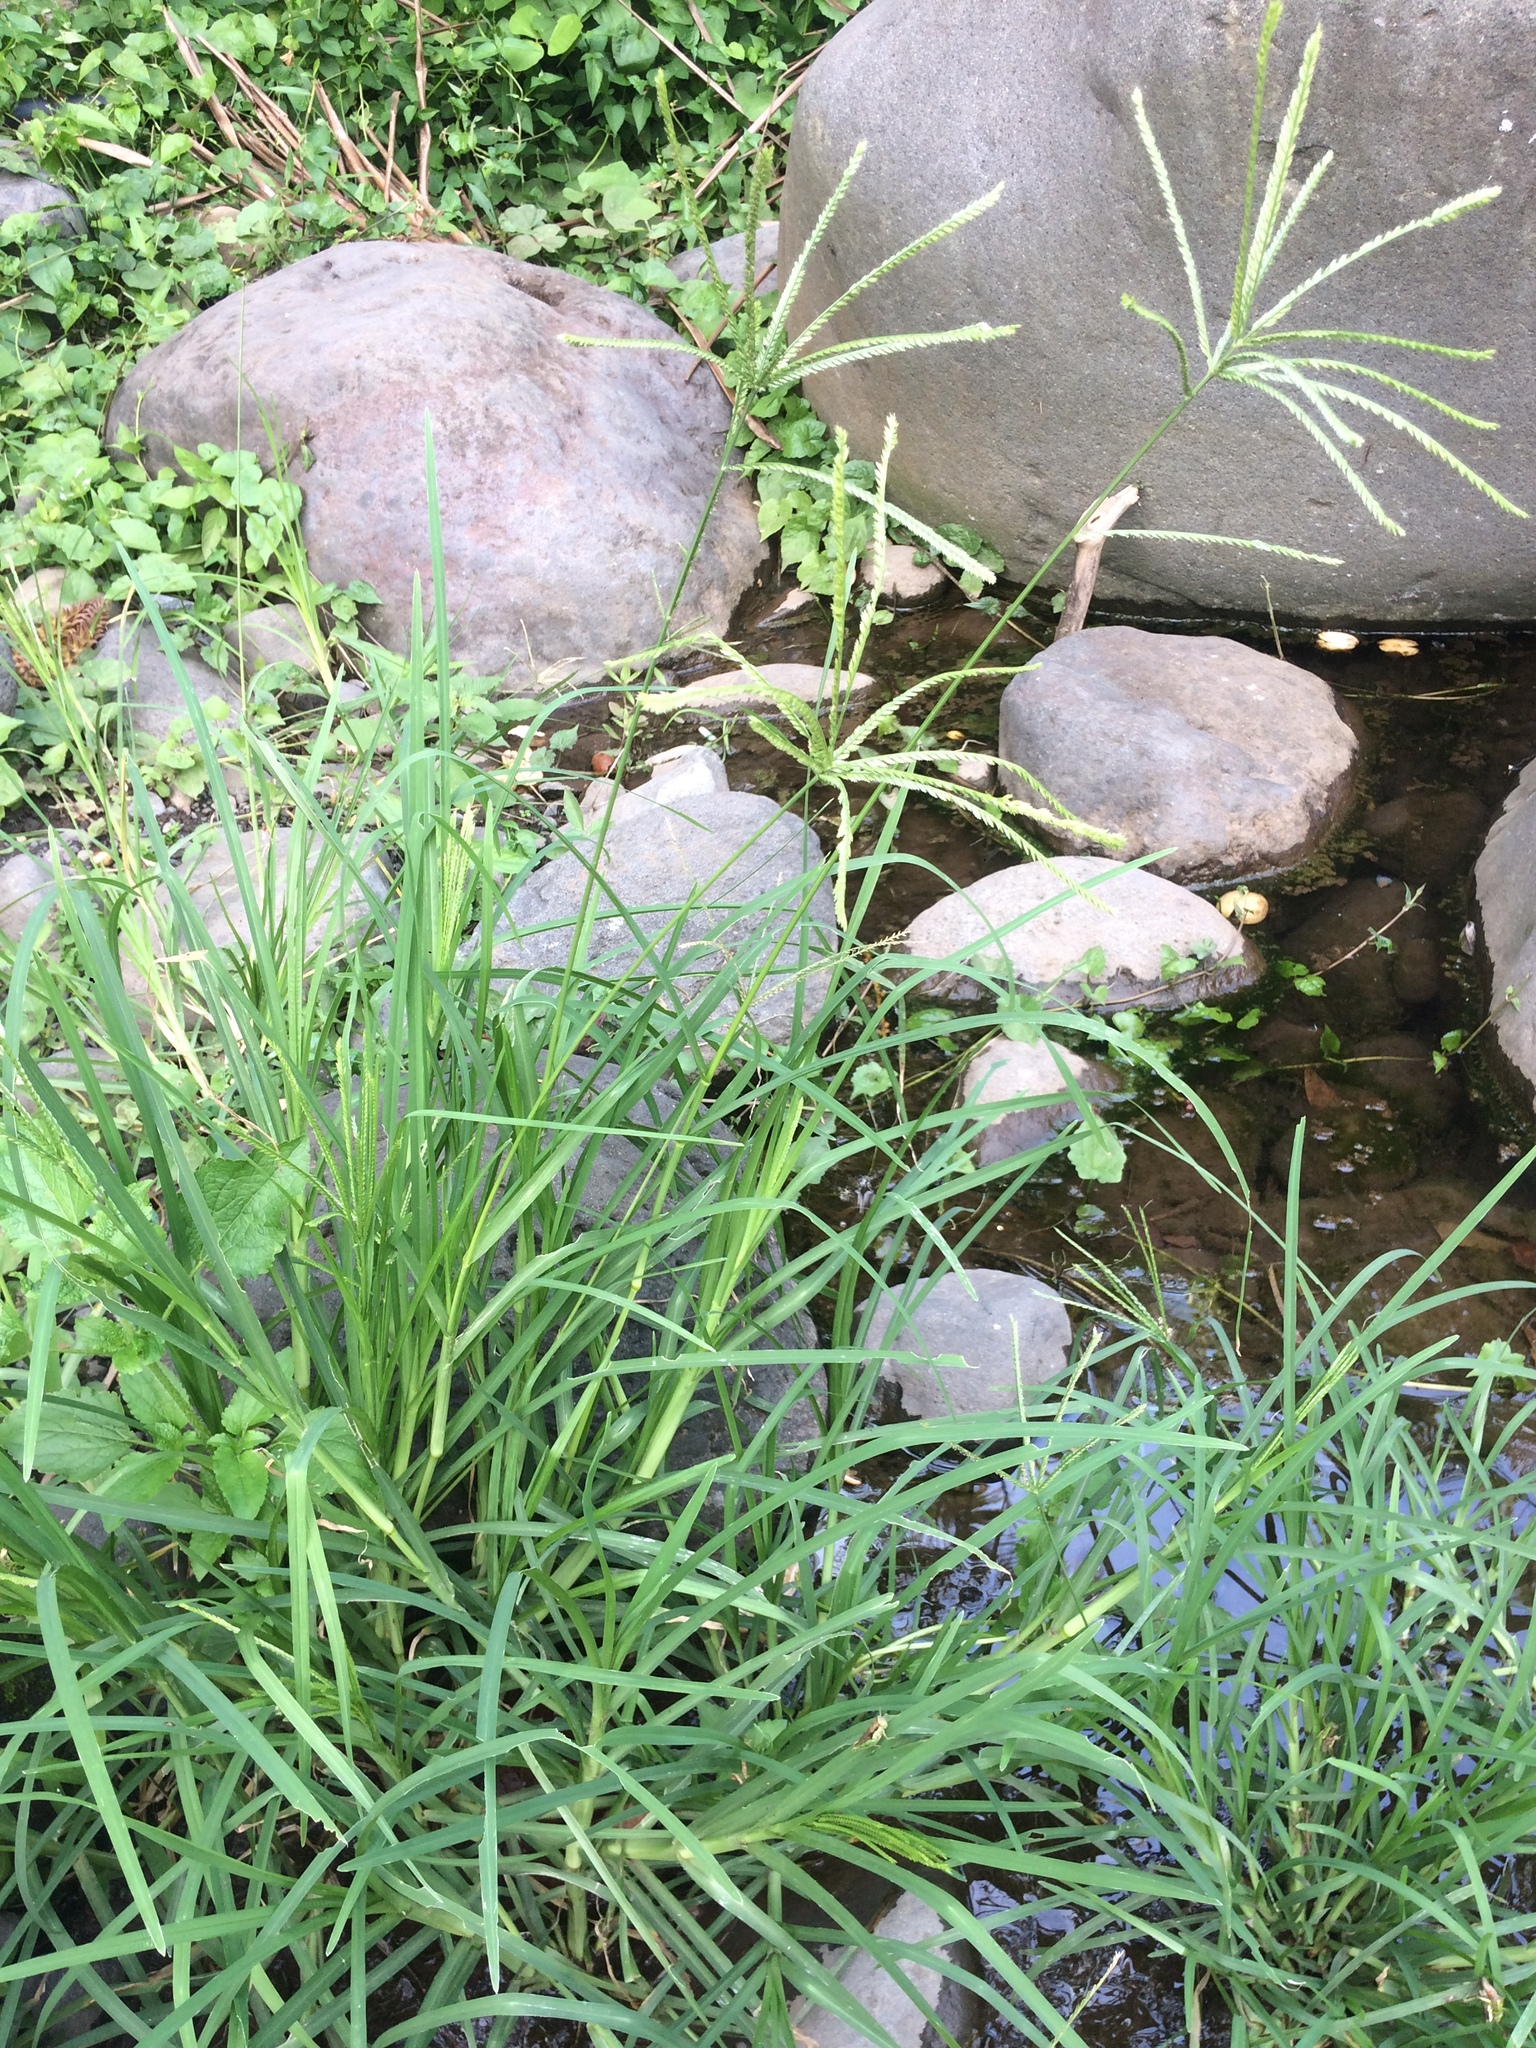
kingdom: Plantae
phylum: Tracheophyta
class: Liliopsida
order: Poales
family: Poaceae
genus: Eleusine
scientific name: Eleusine indica
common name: Yard-grass
